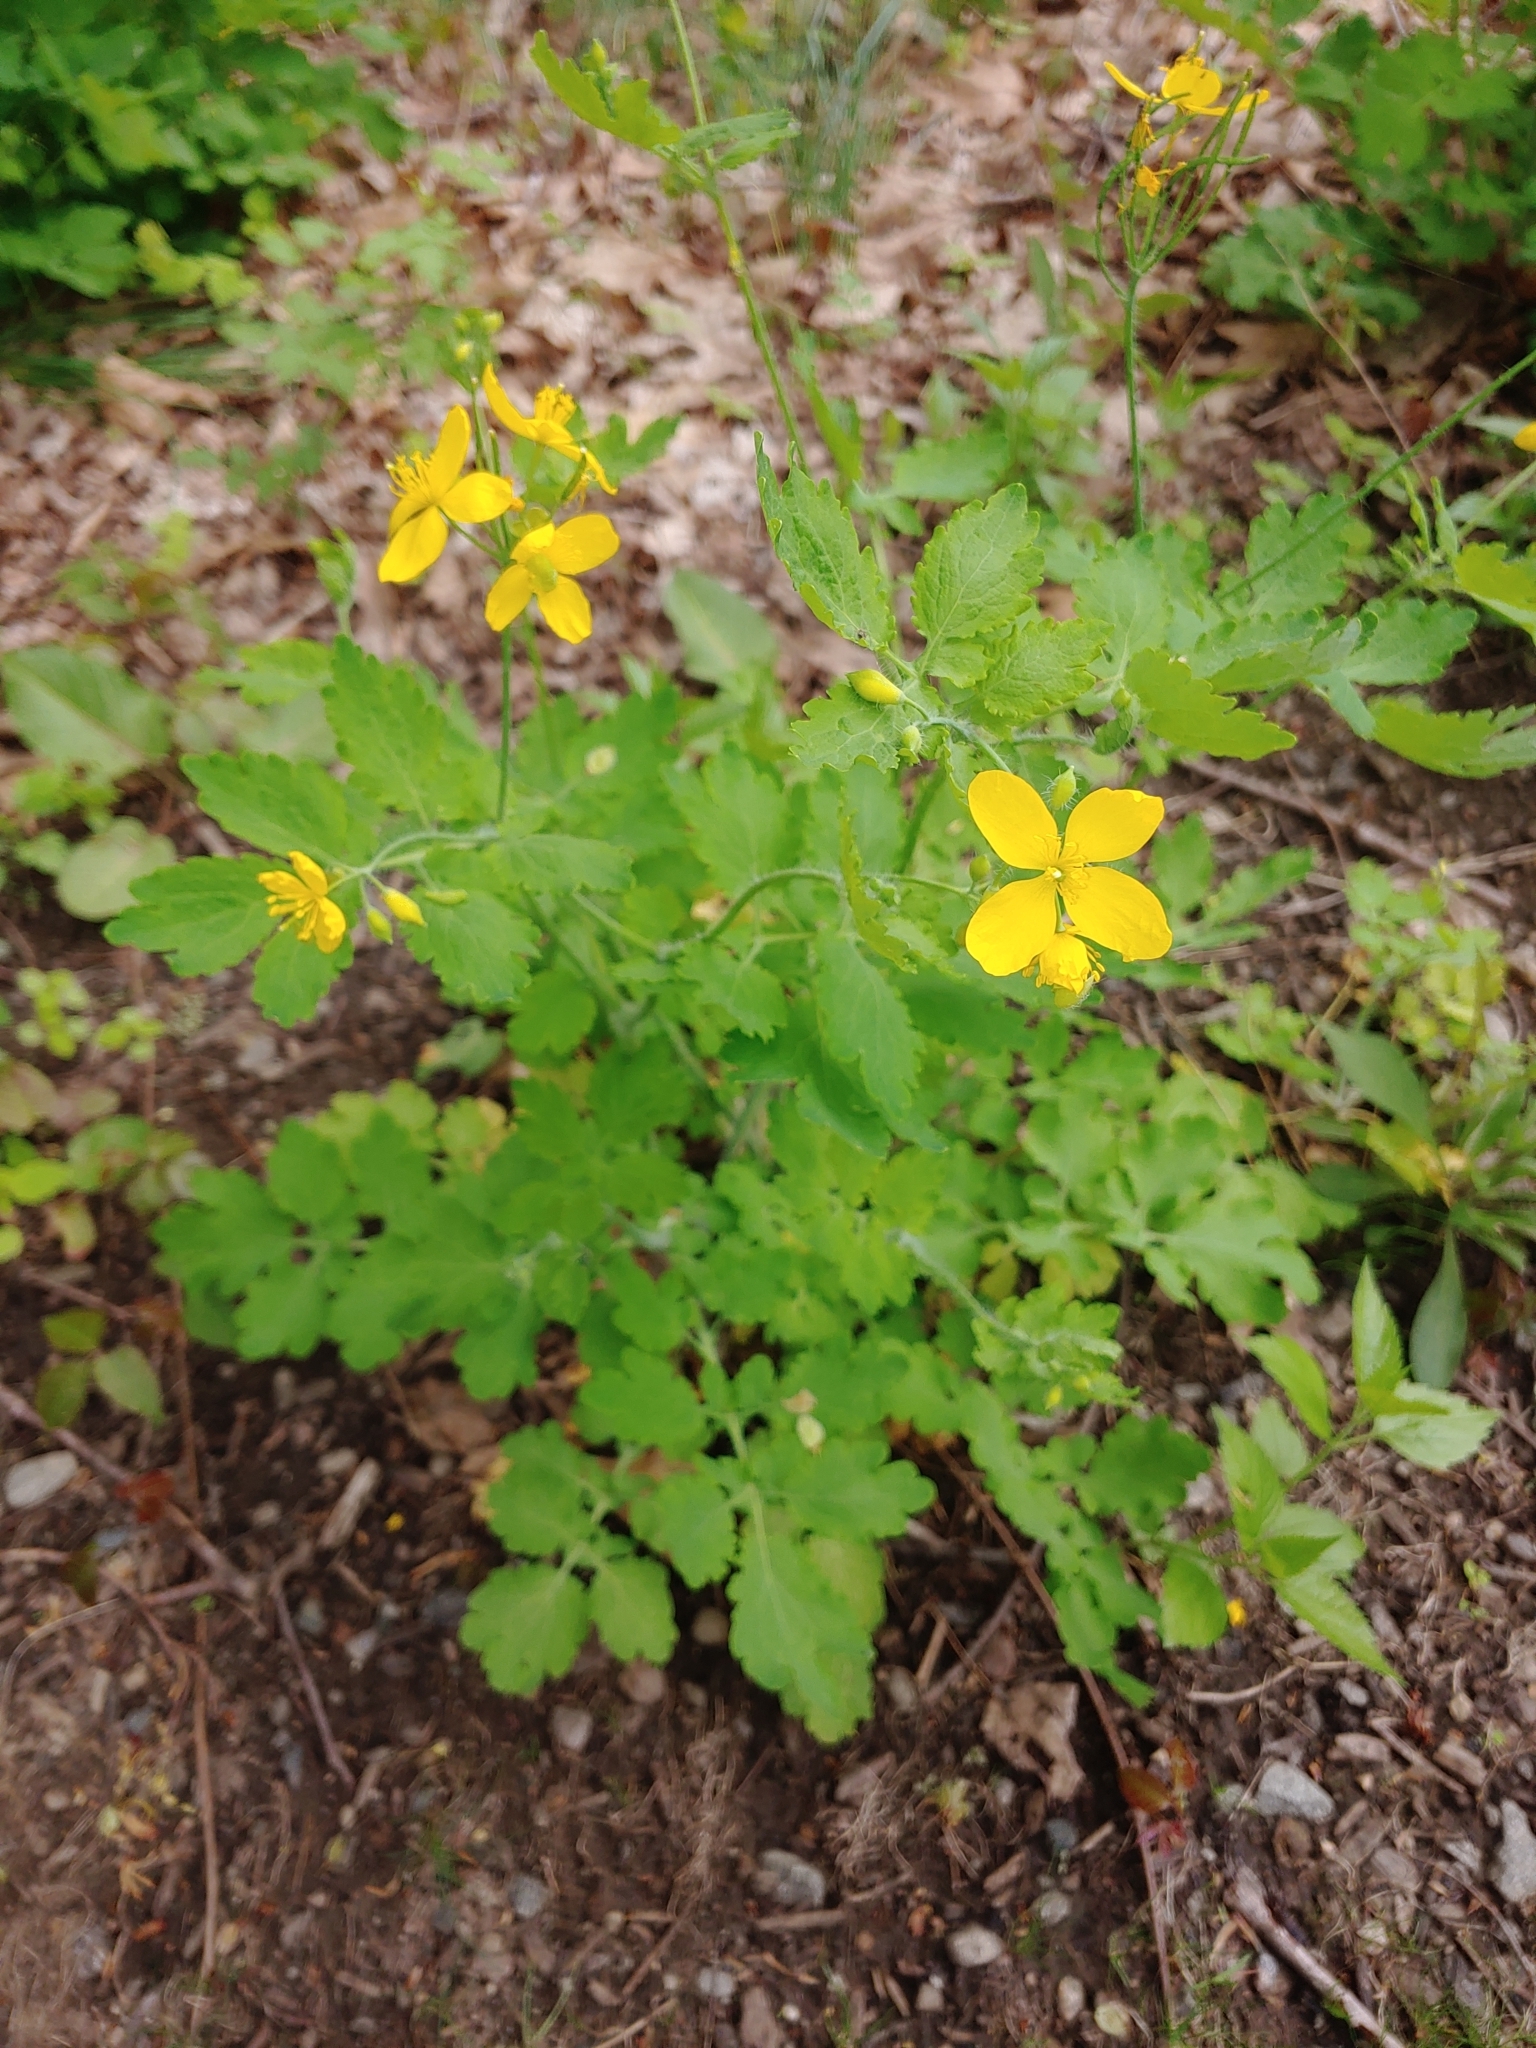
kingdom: Plantae
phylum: Tracheophyta
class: Magnoliopsida
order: Ranunculales
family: Papaveraceae
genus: Chelidonium
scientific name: Chelidonium majus
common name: Greater celandine
